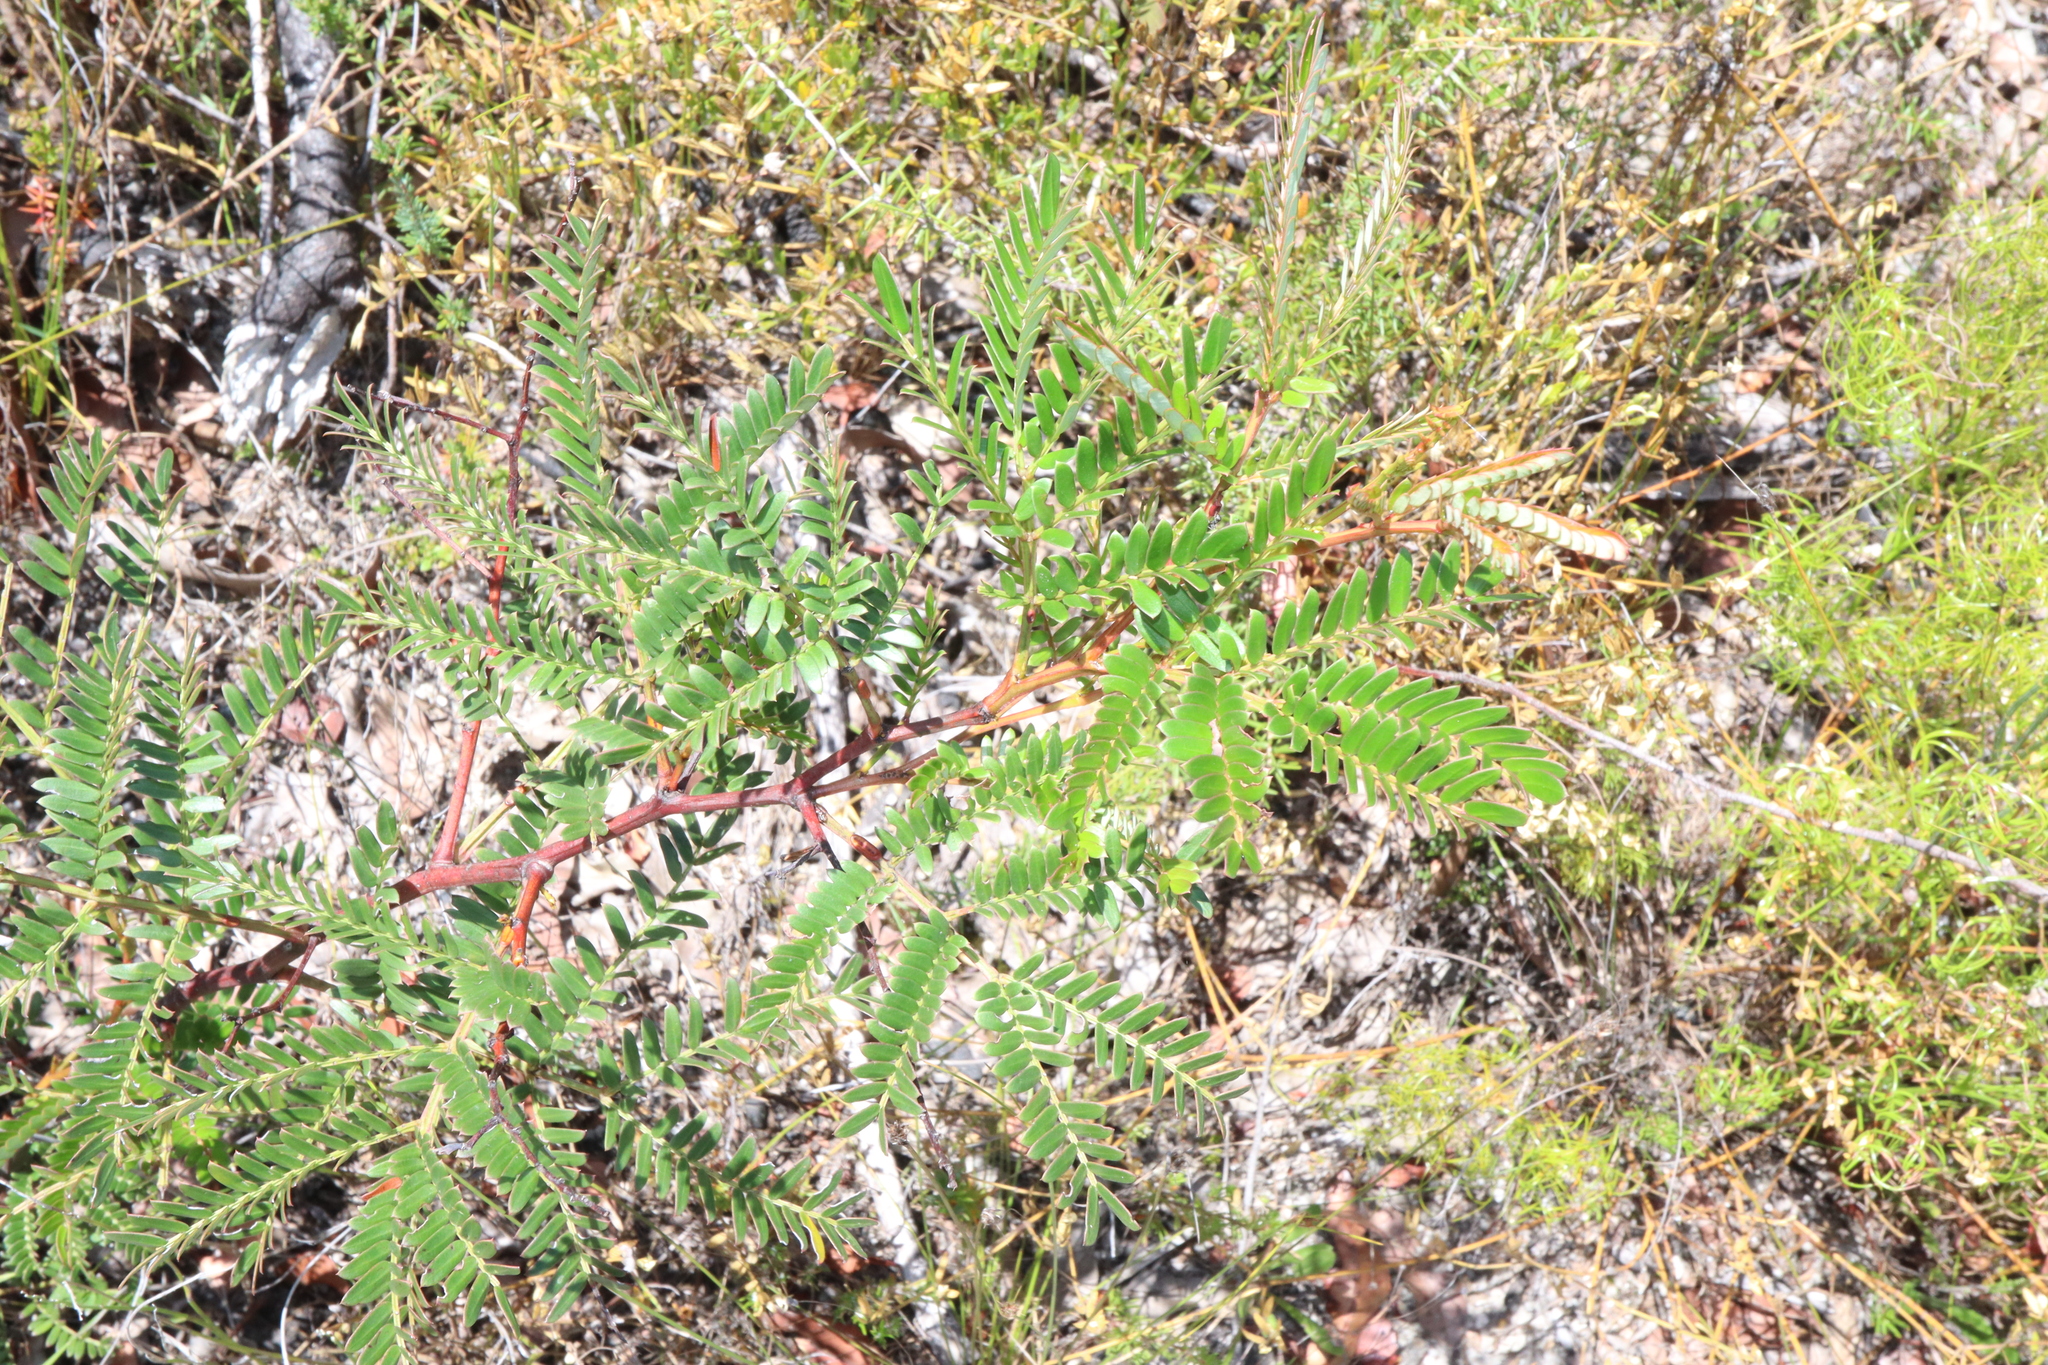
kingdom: Plantae
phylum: Tracheophyta
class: Magnoliopsida
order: Fabales
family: Fabaceae
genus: Acacia
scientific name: Acacia terminalis
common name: Cedar wattle
